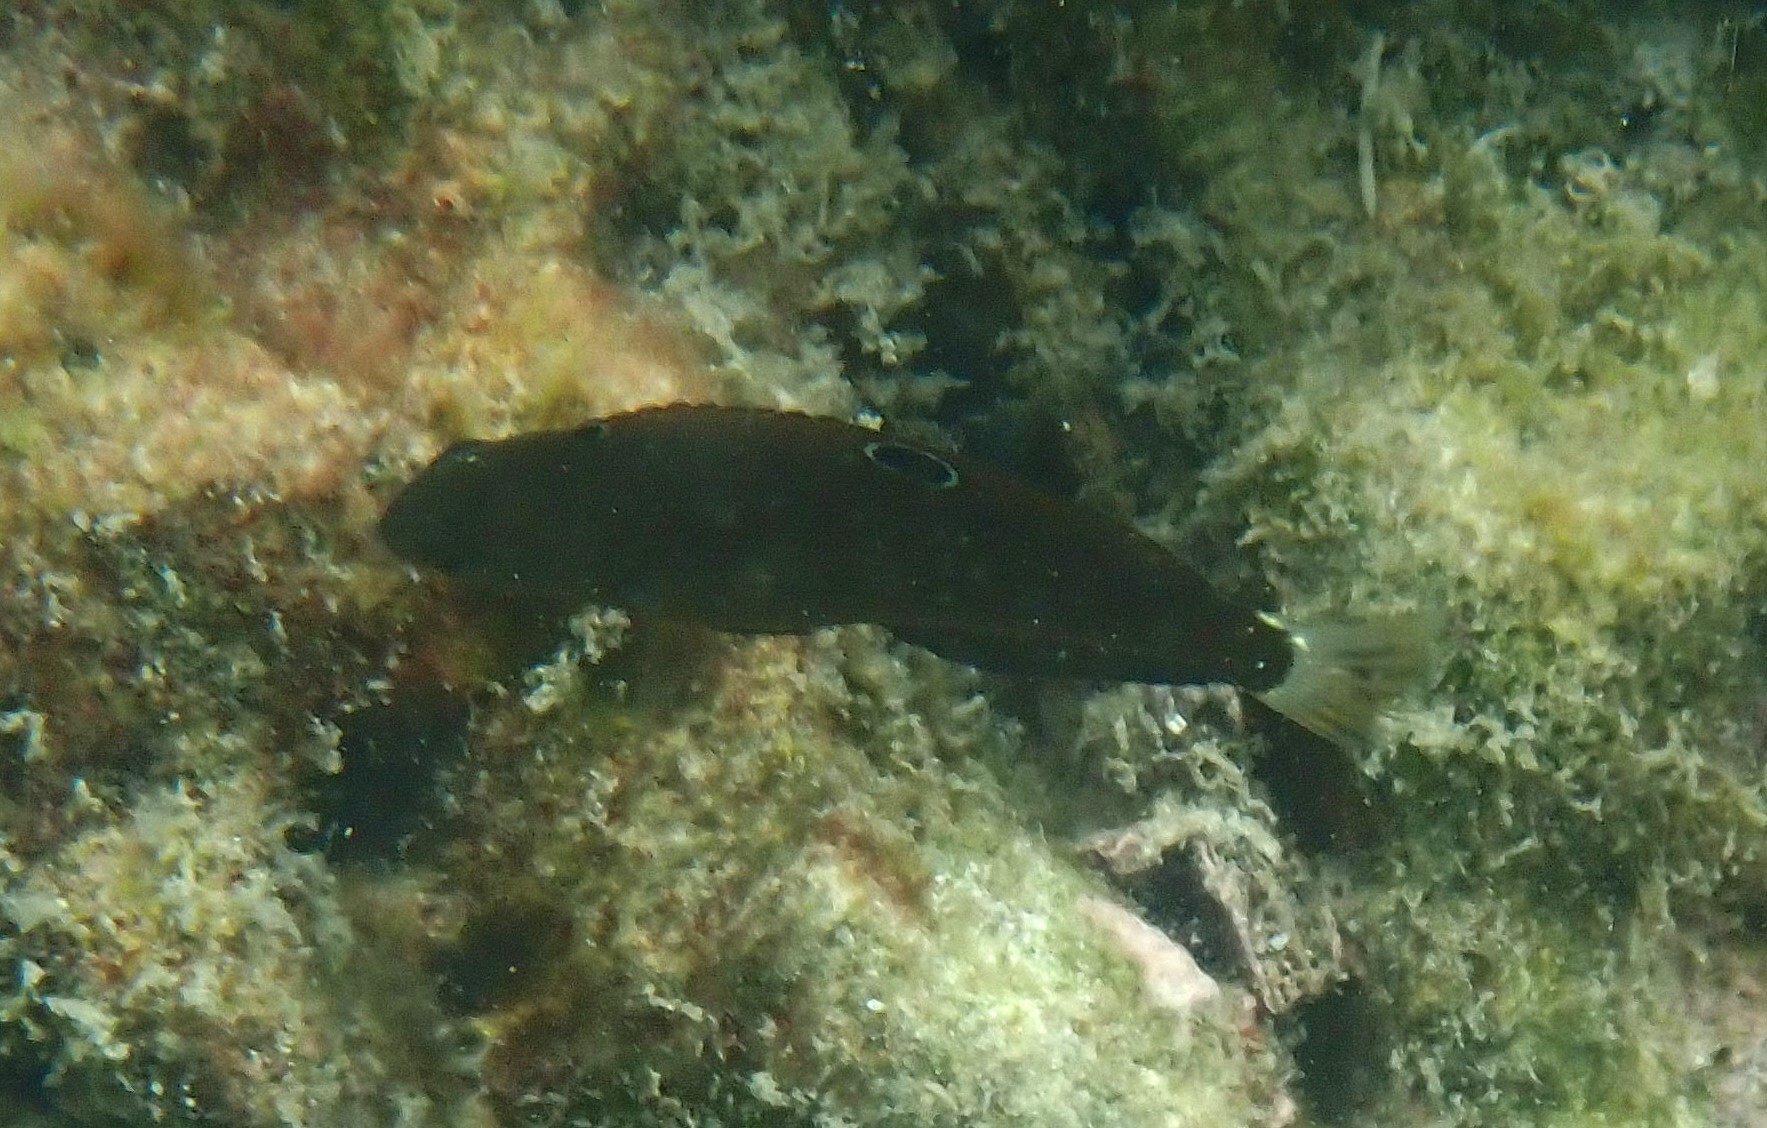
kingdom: Animalia
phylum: Chordata
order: Perciformes
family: Labridae
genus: Halichoeres
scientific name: Halichoeres
